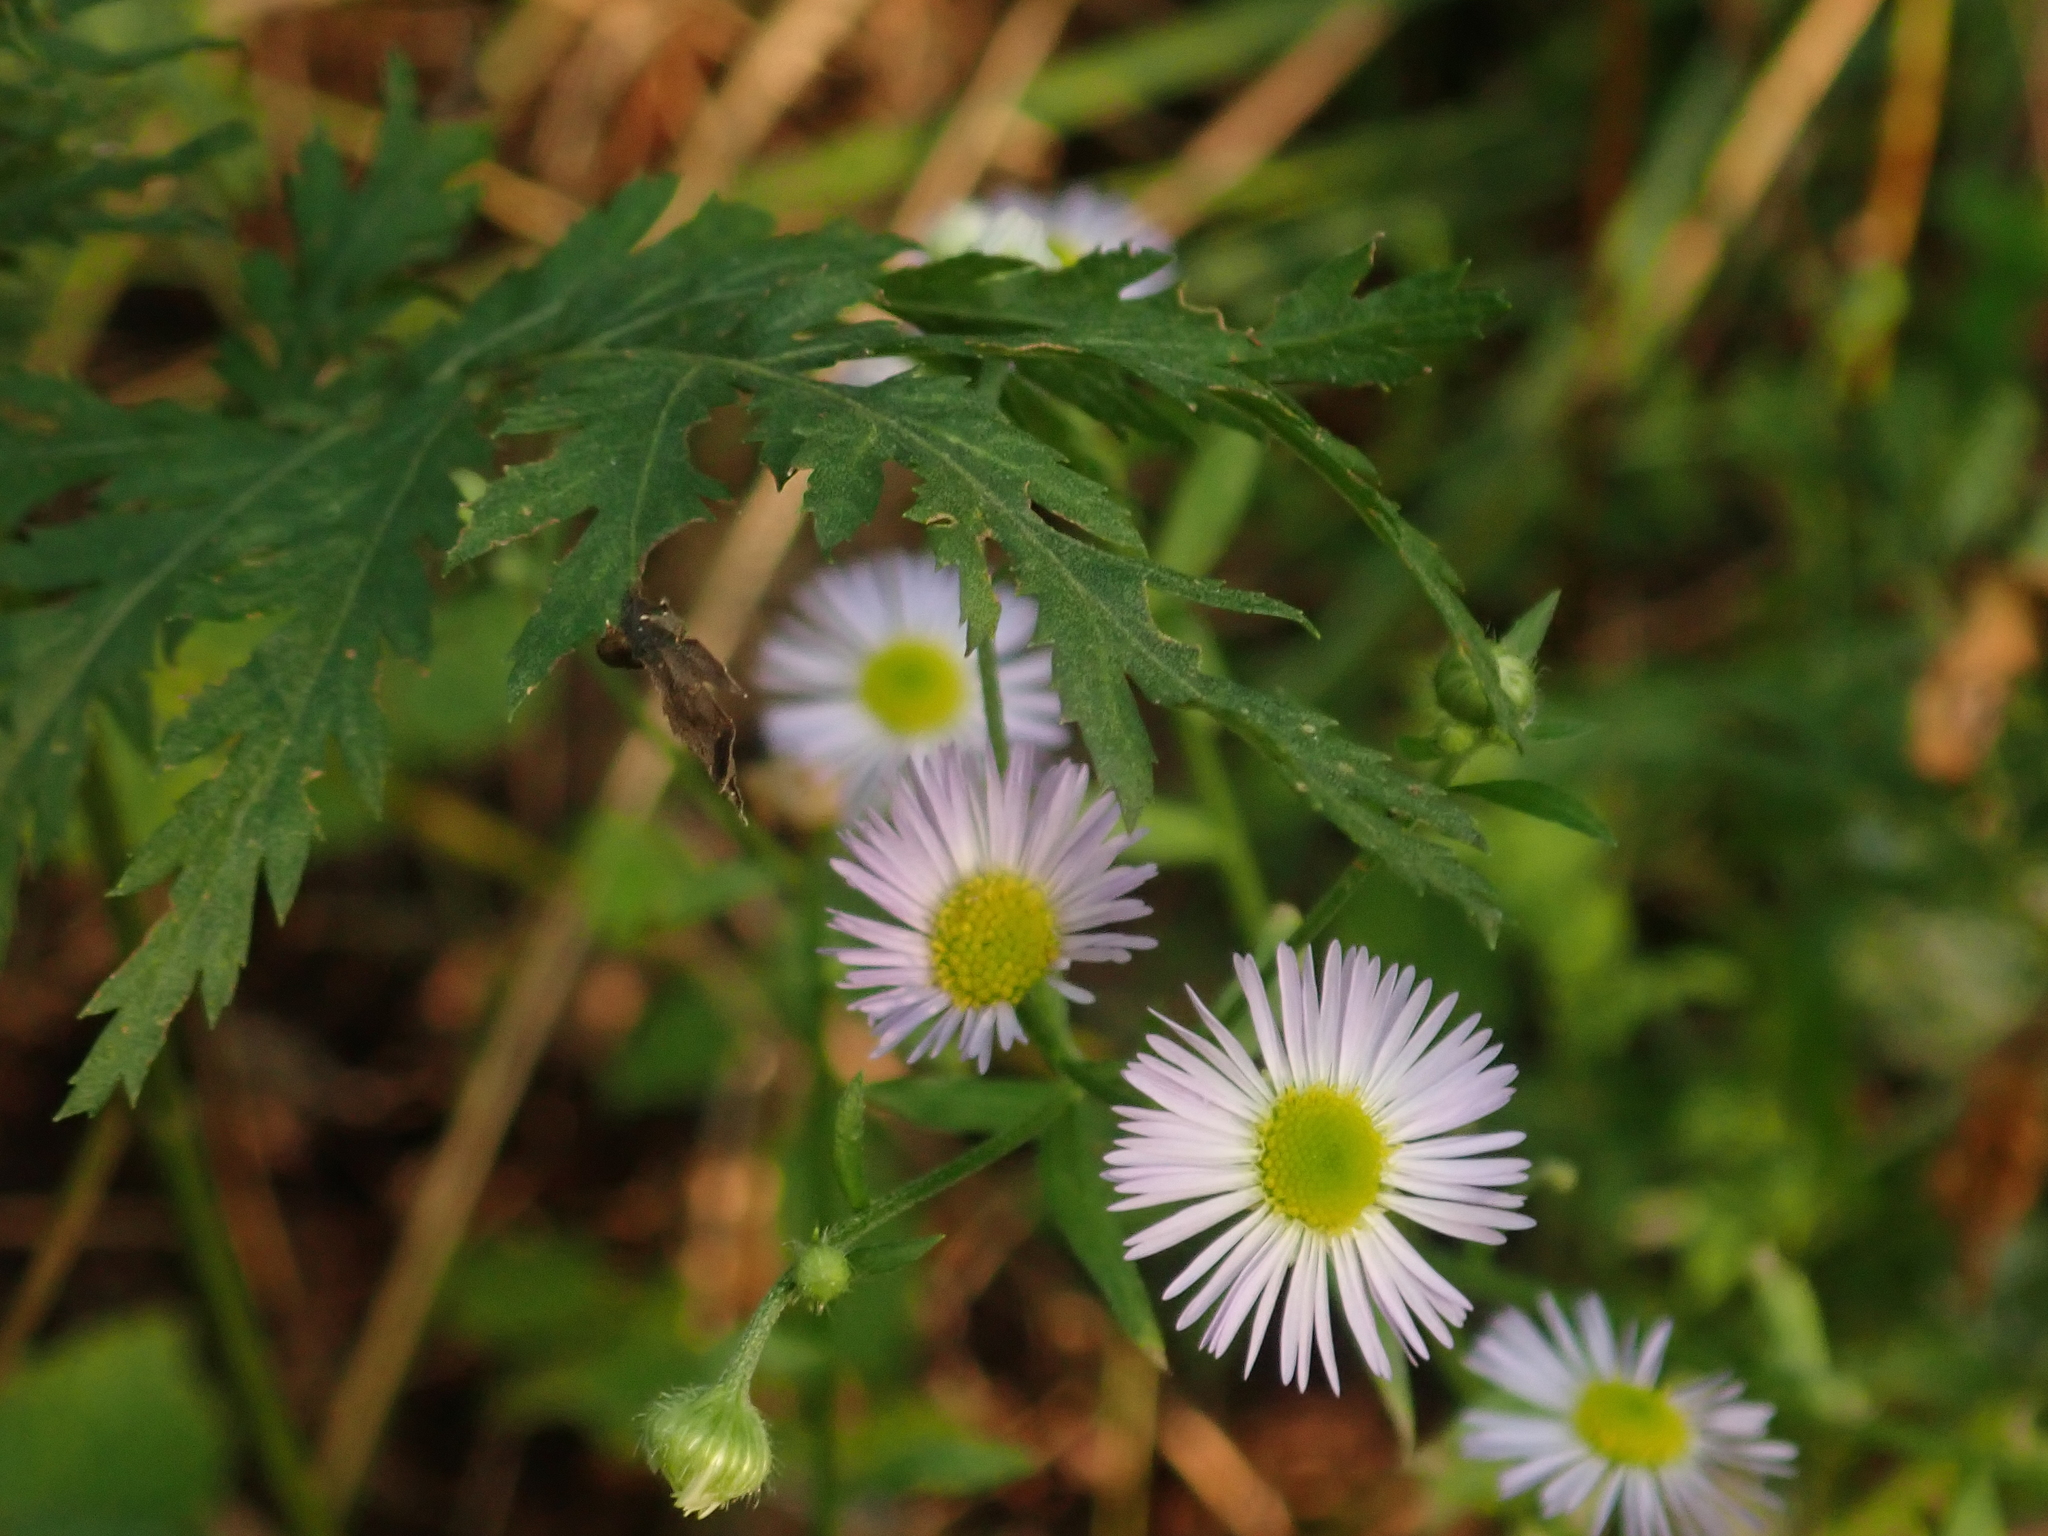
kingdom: Plantae
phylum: Tracheophyta
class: Magnoliopsida
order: Asterales
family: Asteraceae
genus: Erigeron
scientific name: Erigeron annuus
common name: Tall fleabane
